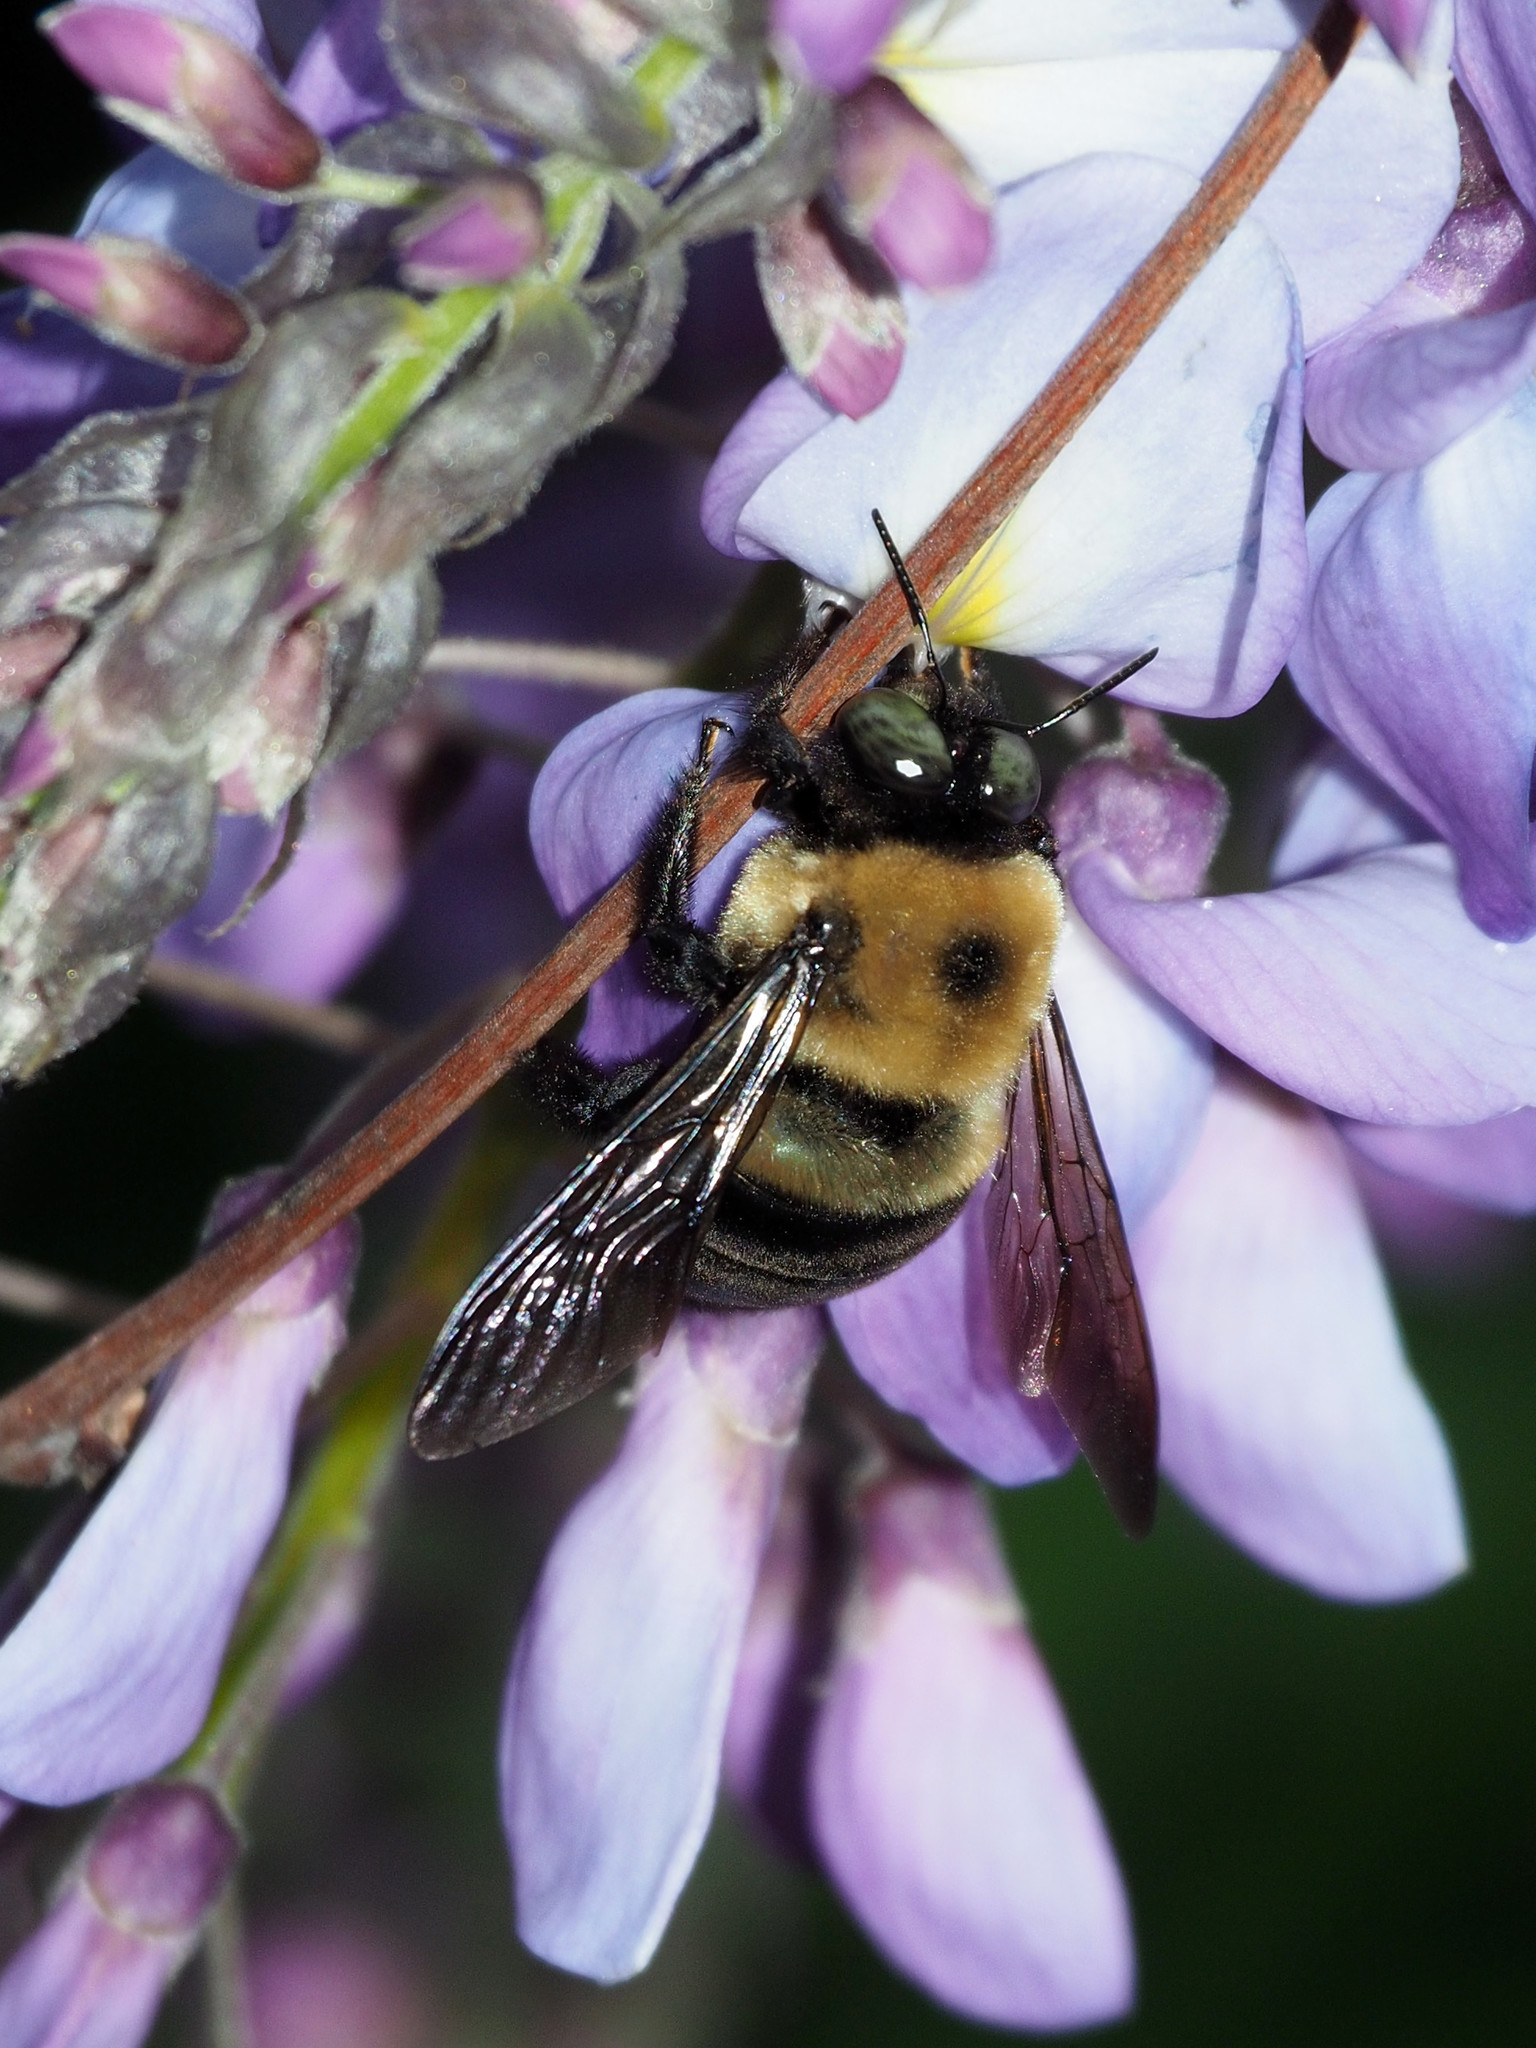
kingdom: Animalia
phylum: Arthropoda
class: Insecta
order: Hymenoptera
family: Apidae
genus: Xylocopa
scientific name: Xylocopa virginica
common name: Carpenter bee
